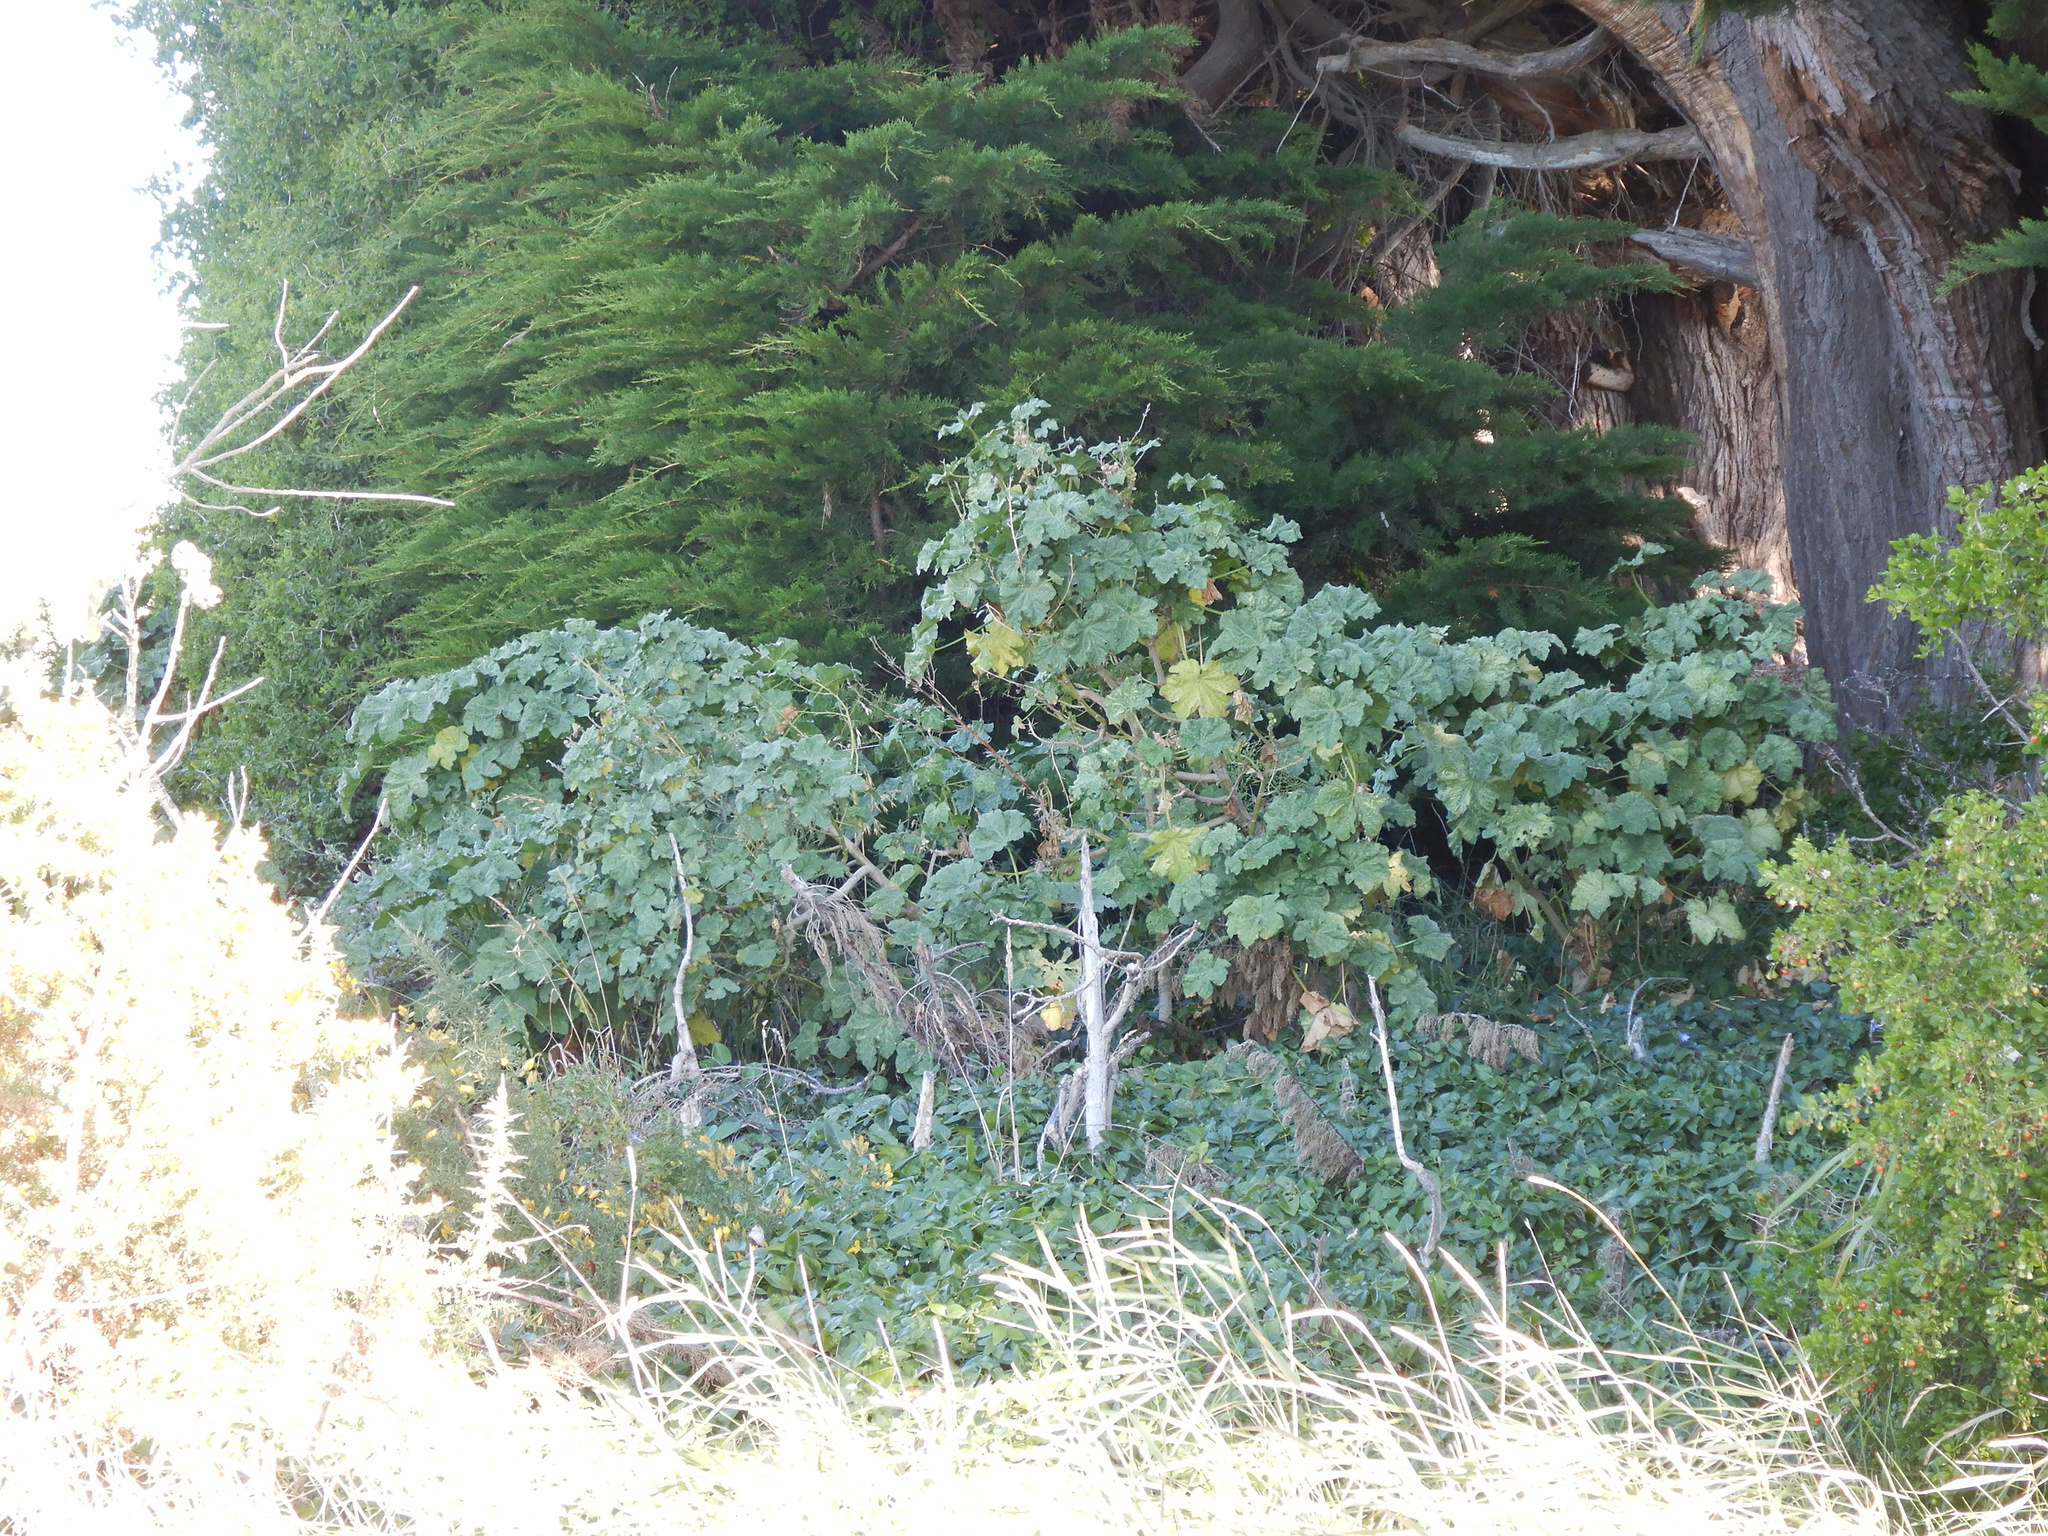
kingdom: Plantae
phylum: Tracheophyta
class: Magnoliopsida
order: Malvales
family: Malvaceae
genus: Malva
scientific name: Malva arborea
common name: Tree mallow
